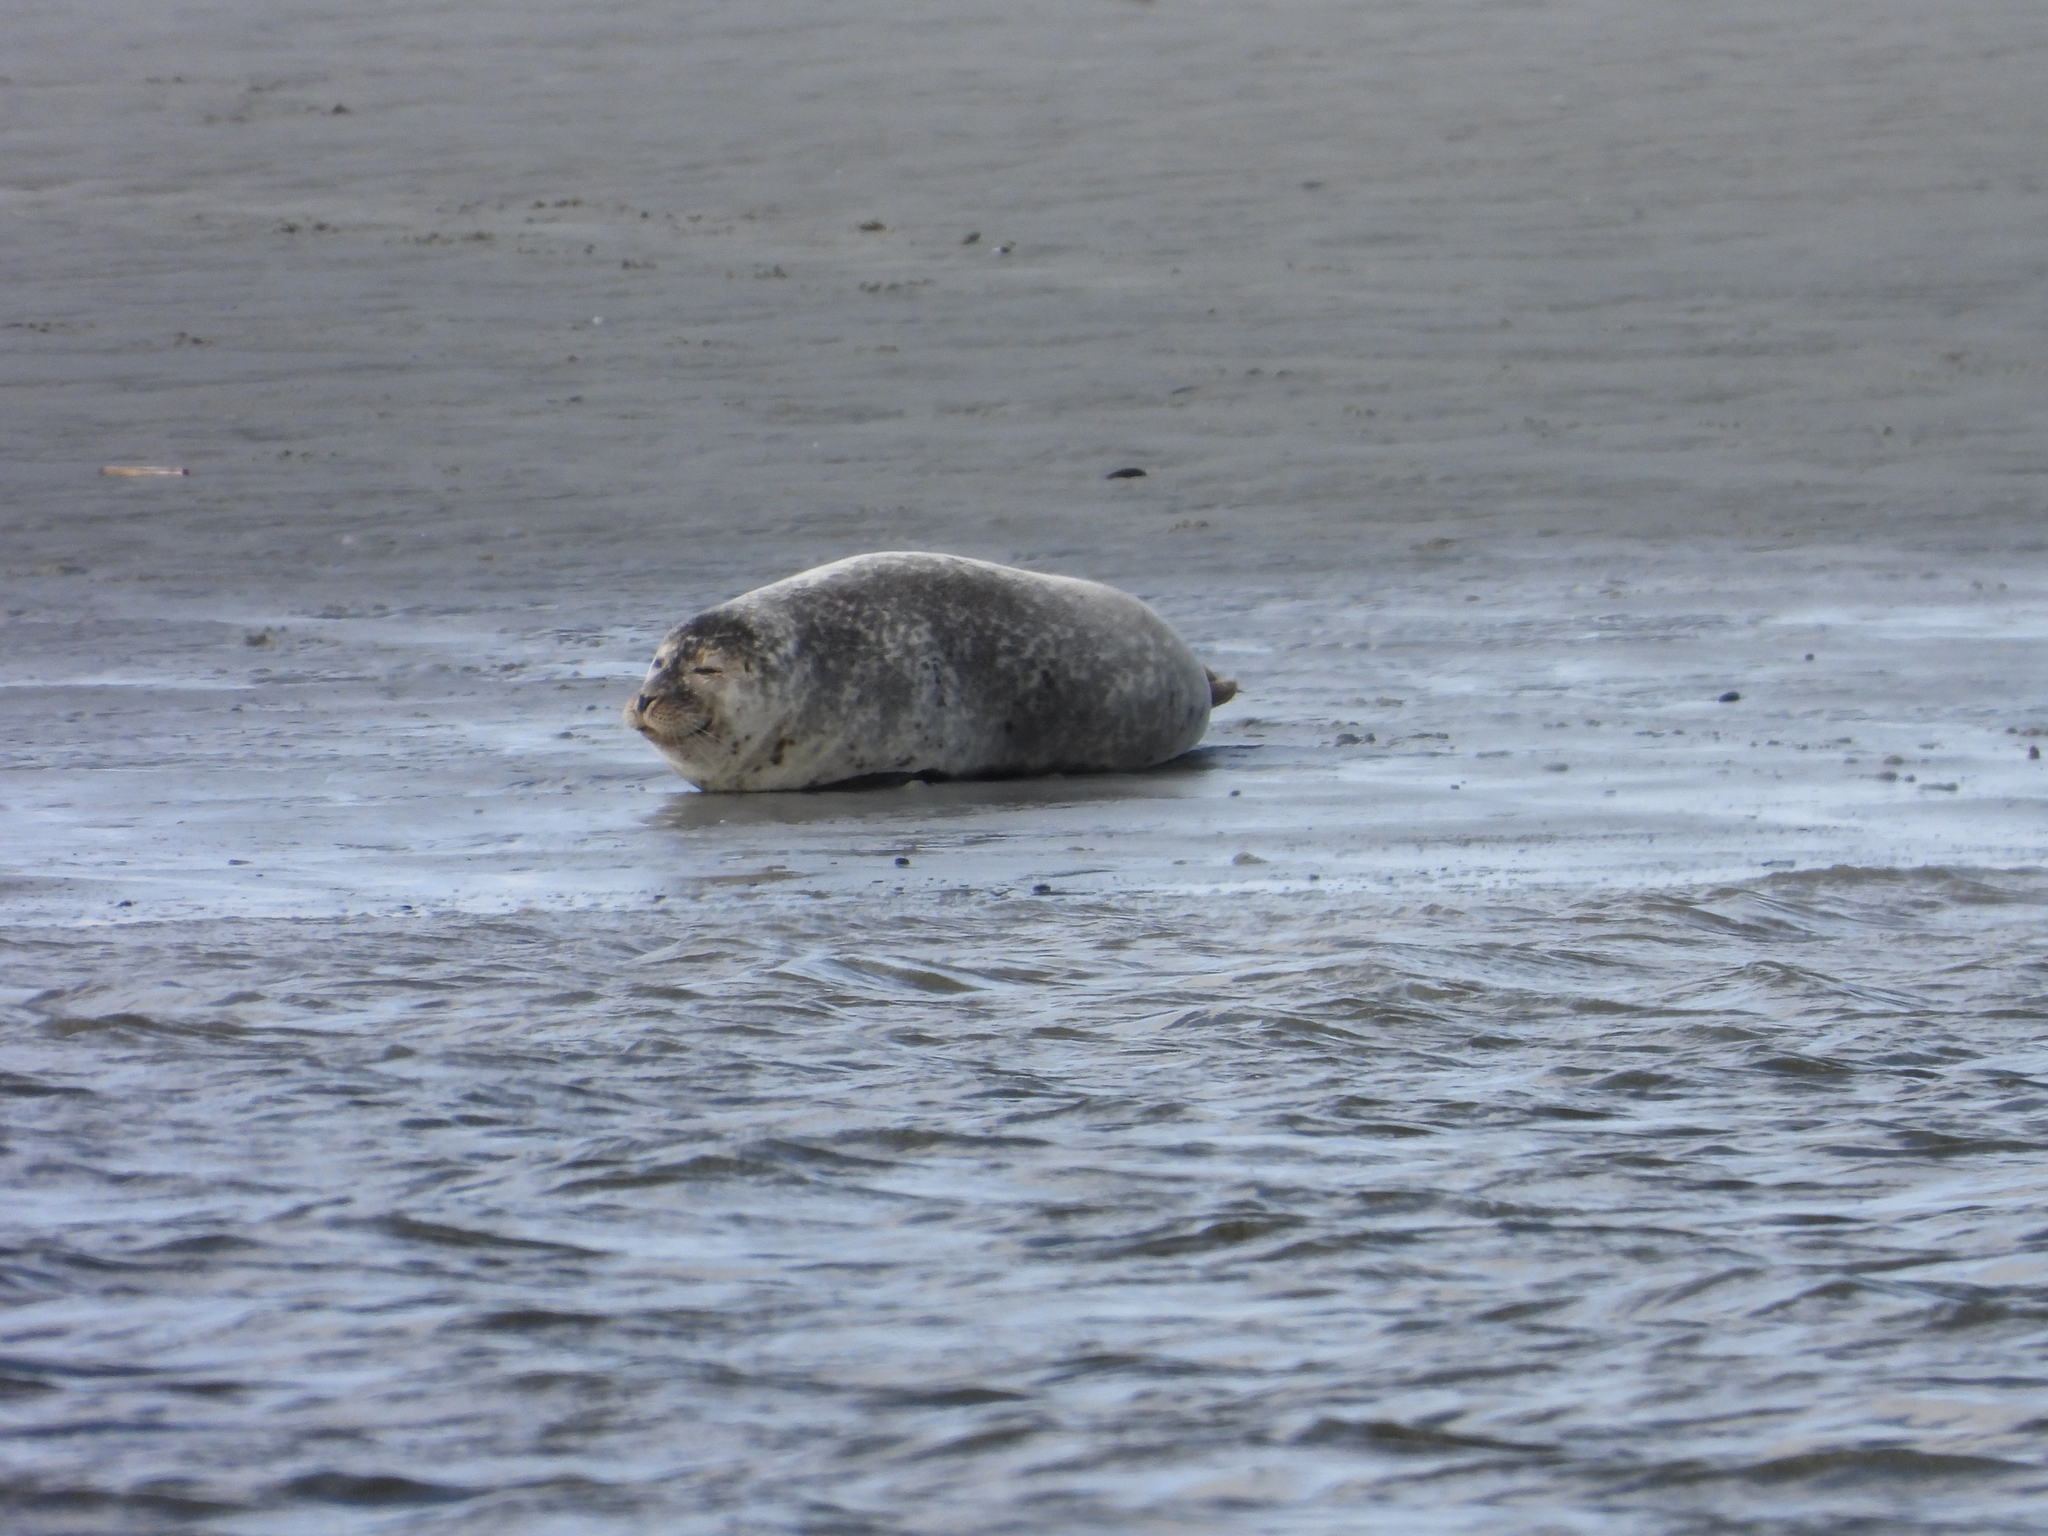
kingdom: Animalia
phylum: Chordata
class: Mammalia
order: Carnivora
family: Phocidae
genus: Phoca
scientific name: Phoca vitulina
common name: Harbor seal
